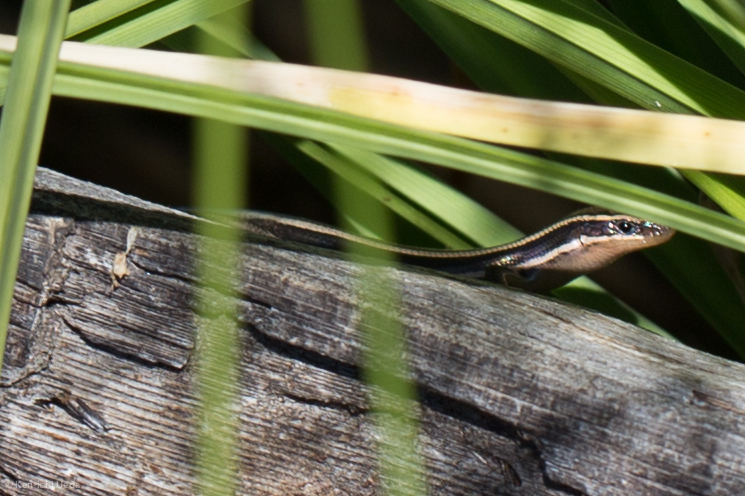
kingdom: Animalia
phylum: Chordata
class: Squamata
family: Scincidae
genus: Plestiodon
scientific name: Plestiodon skiltonianus
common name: Coronado island skink [interparietalis]
